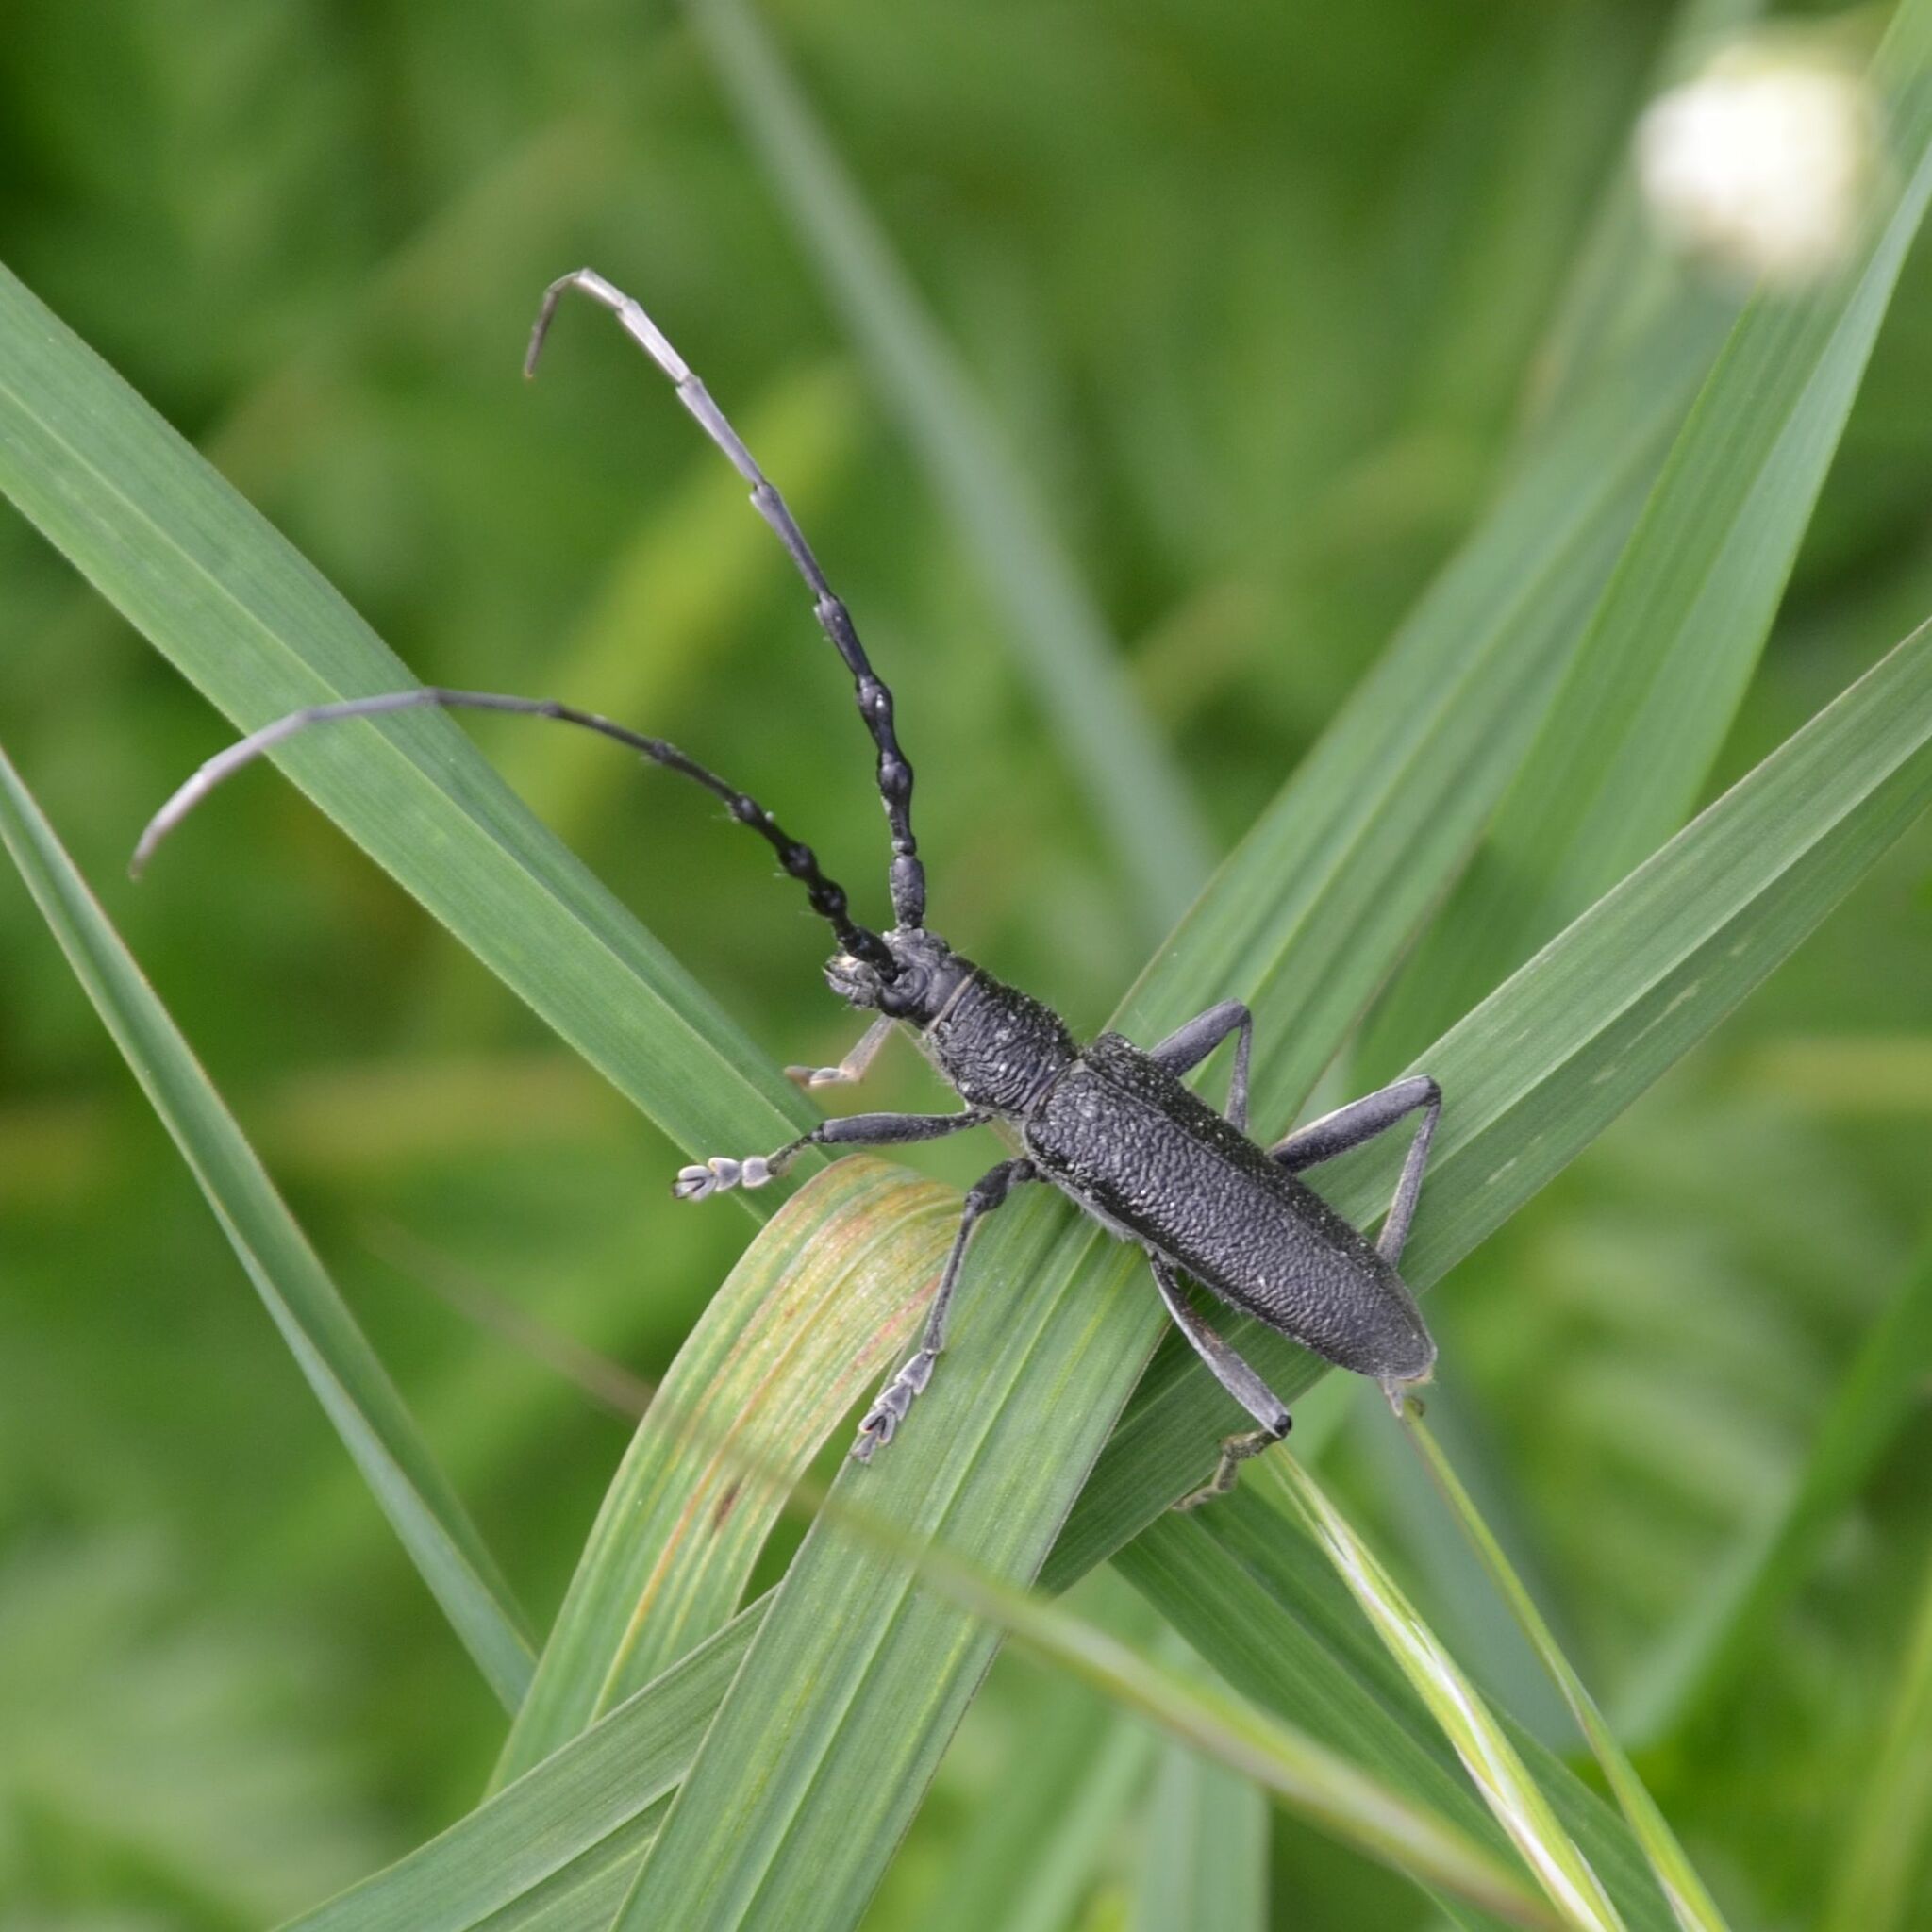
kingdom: Animalia
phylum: Arthropoda
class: Insecta
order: Coleoptera
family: Cerambycidae
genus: Cerambyx
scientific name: Cerambyx scopolii
